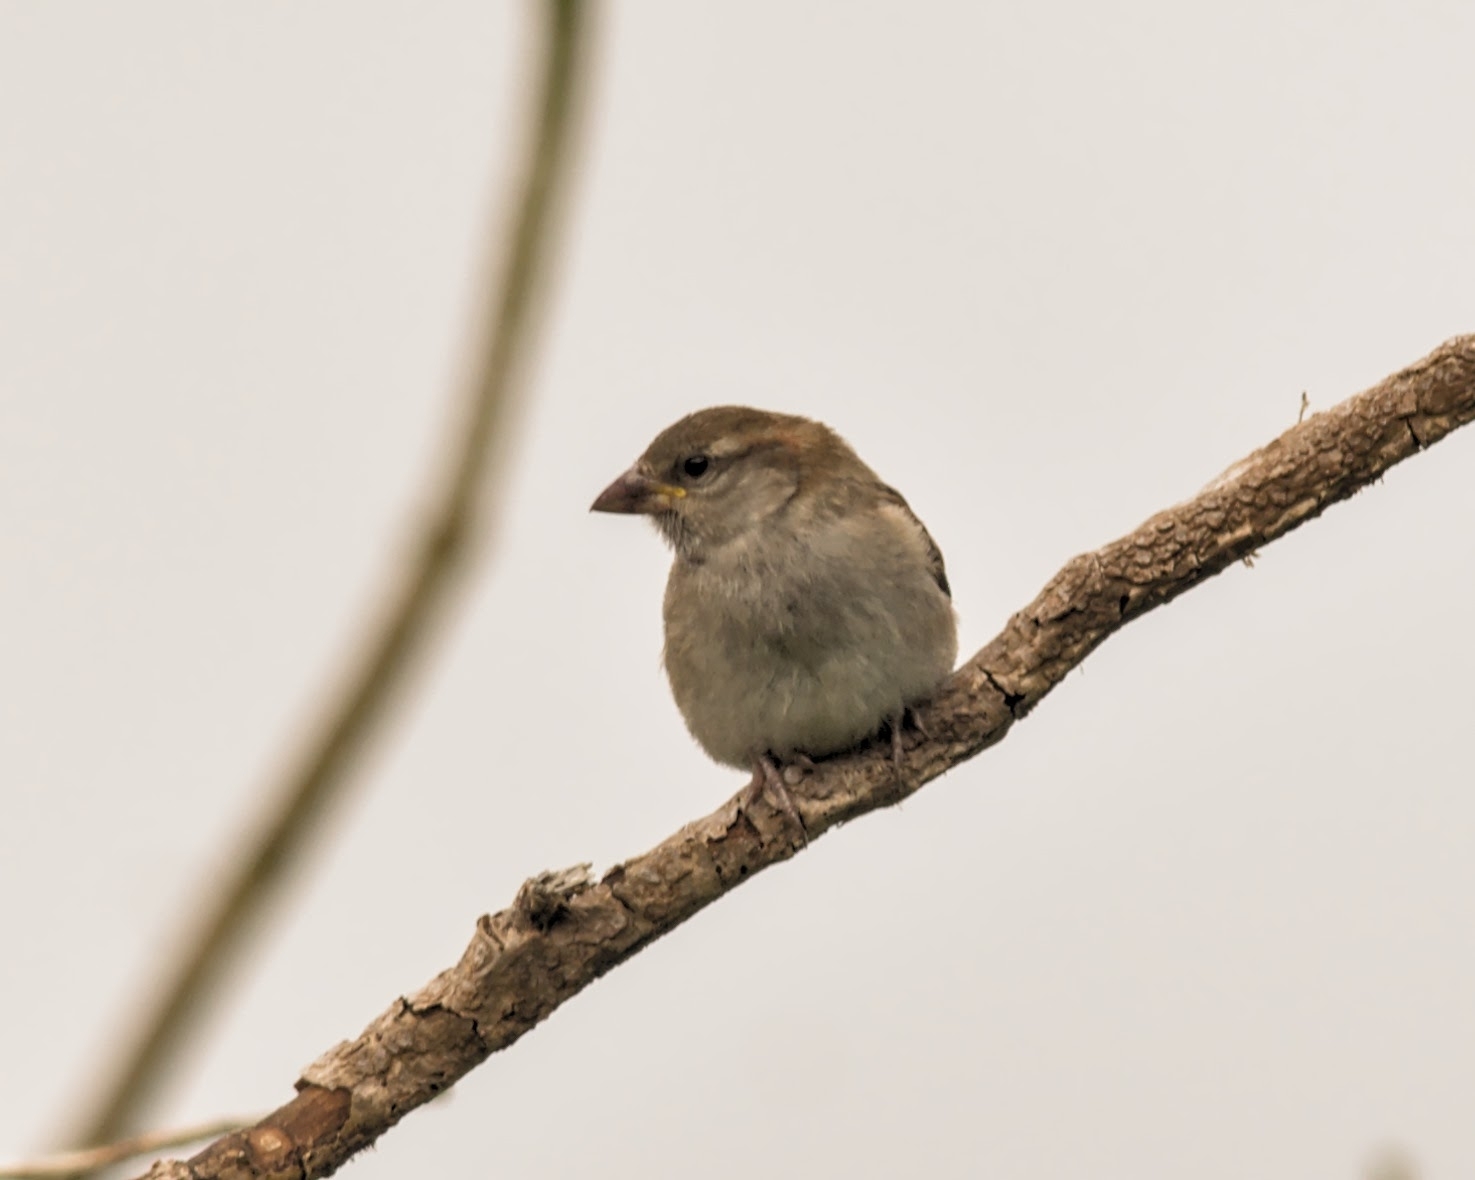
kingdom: Animalia
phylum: Chordata
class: Aves
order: Passeriformes
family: Passeridae
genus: Passer
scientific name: Passer domesticus
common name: House sparrow
